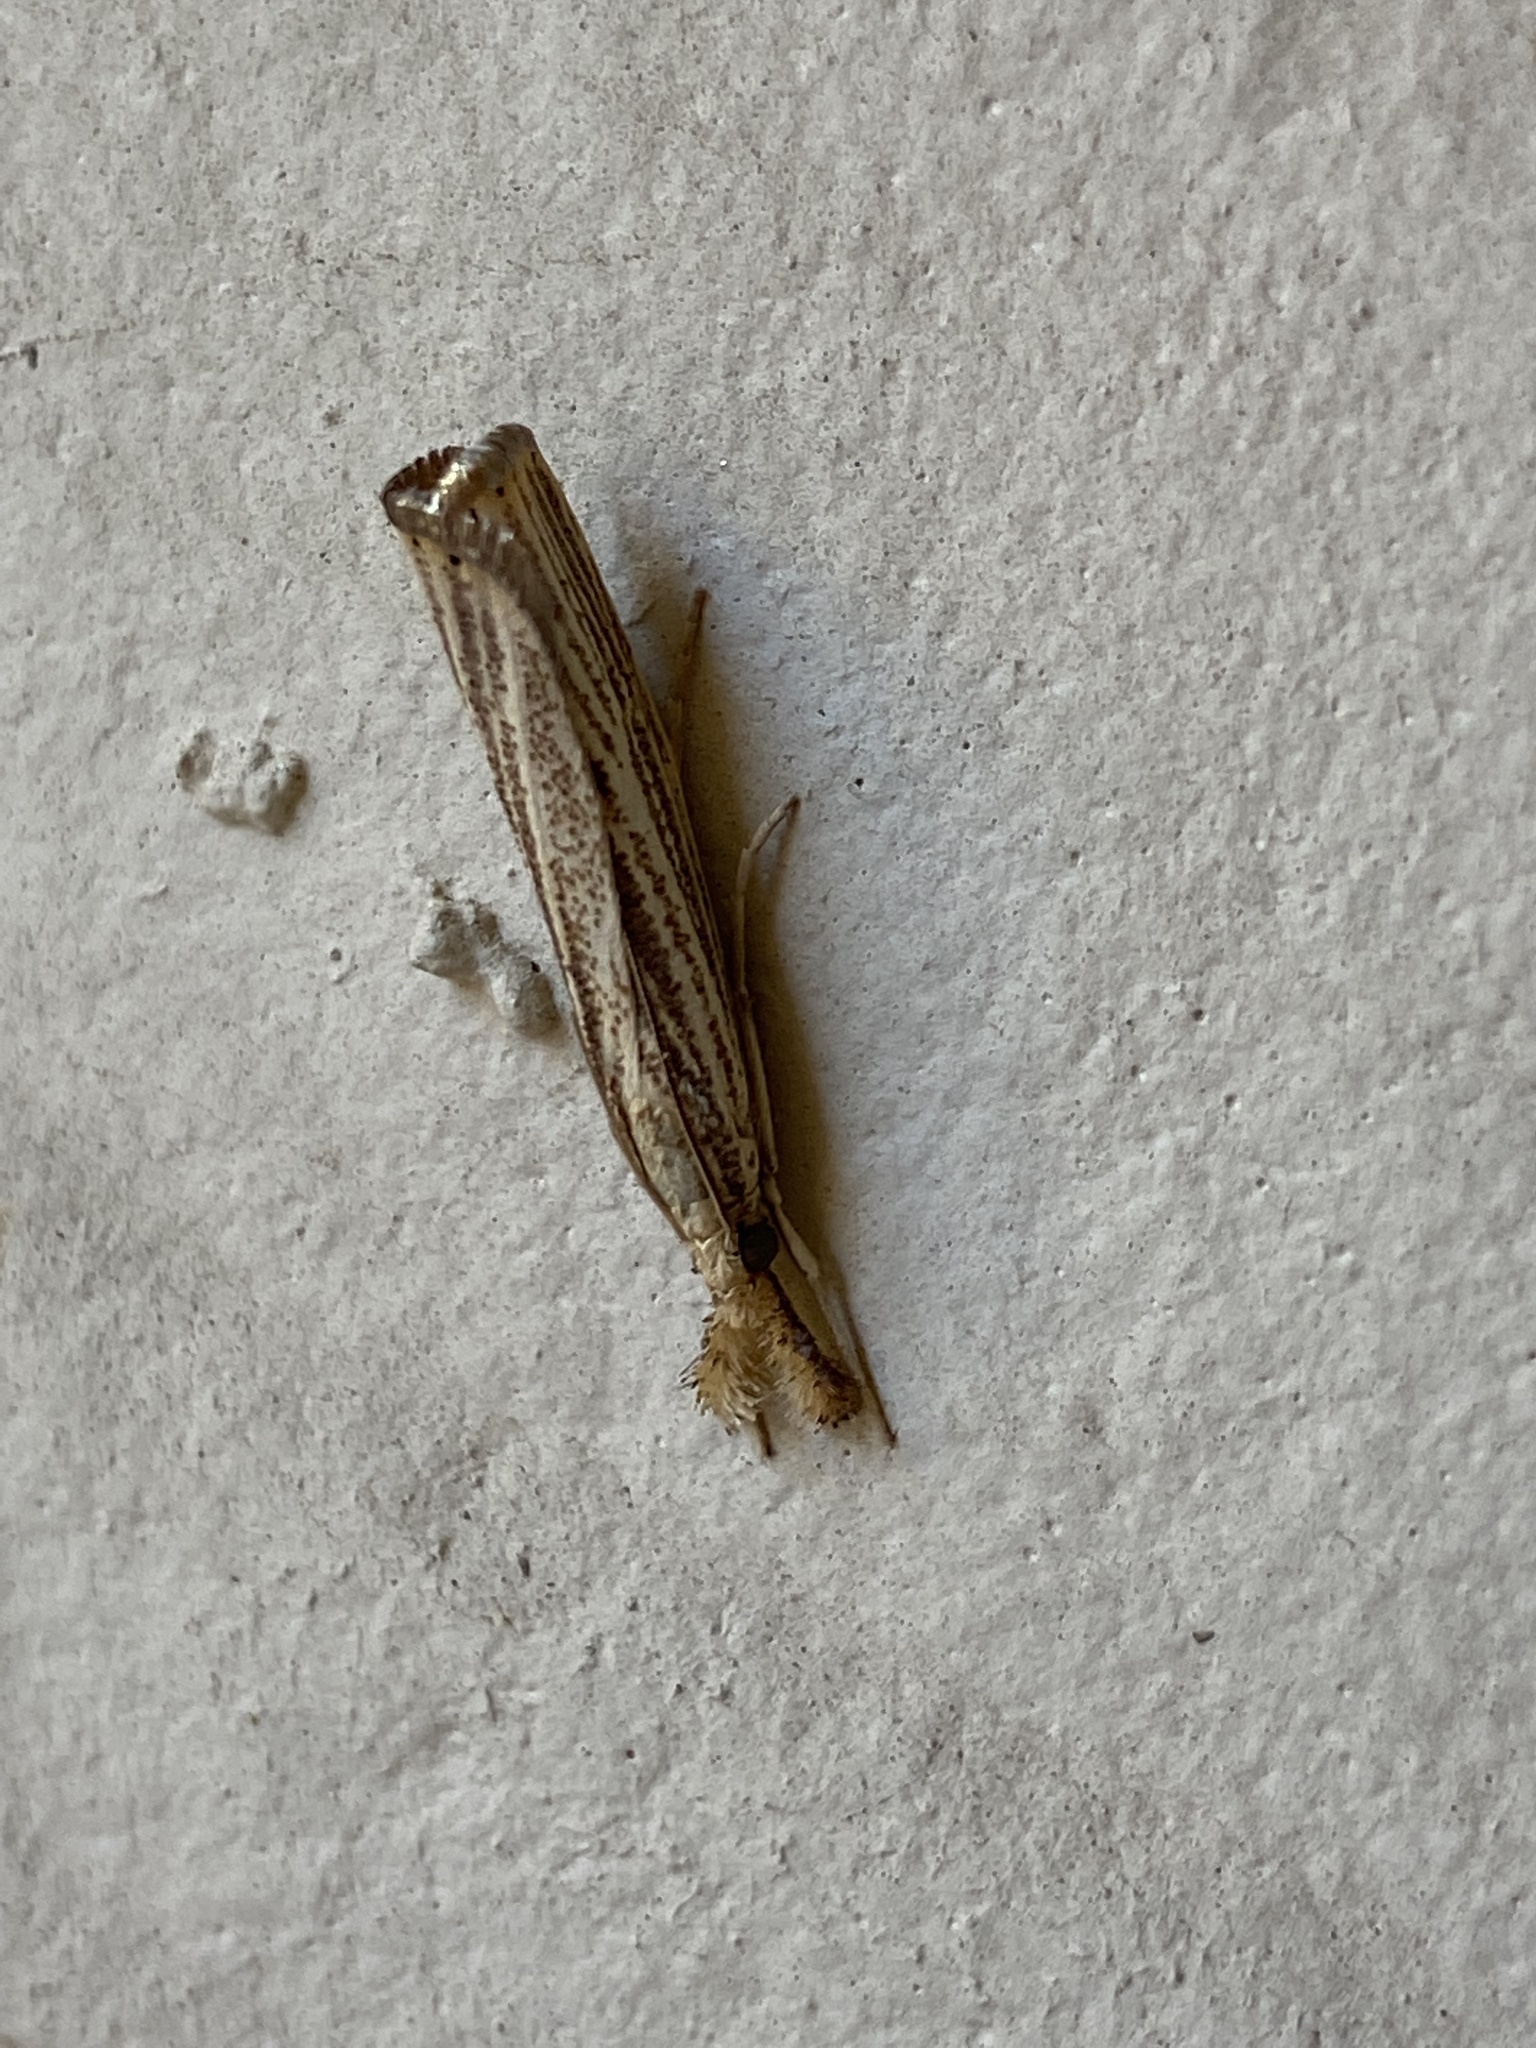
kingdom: Animalia
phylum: Arthropoda
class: Insecta
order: Lepidoptera
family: Crambidae
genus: Agriphila
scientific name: Agriphila vulgivagellus
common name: Vagabond crambus moth
